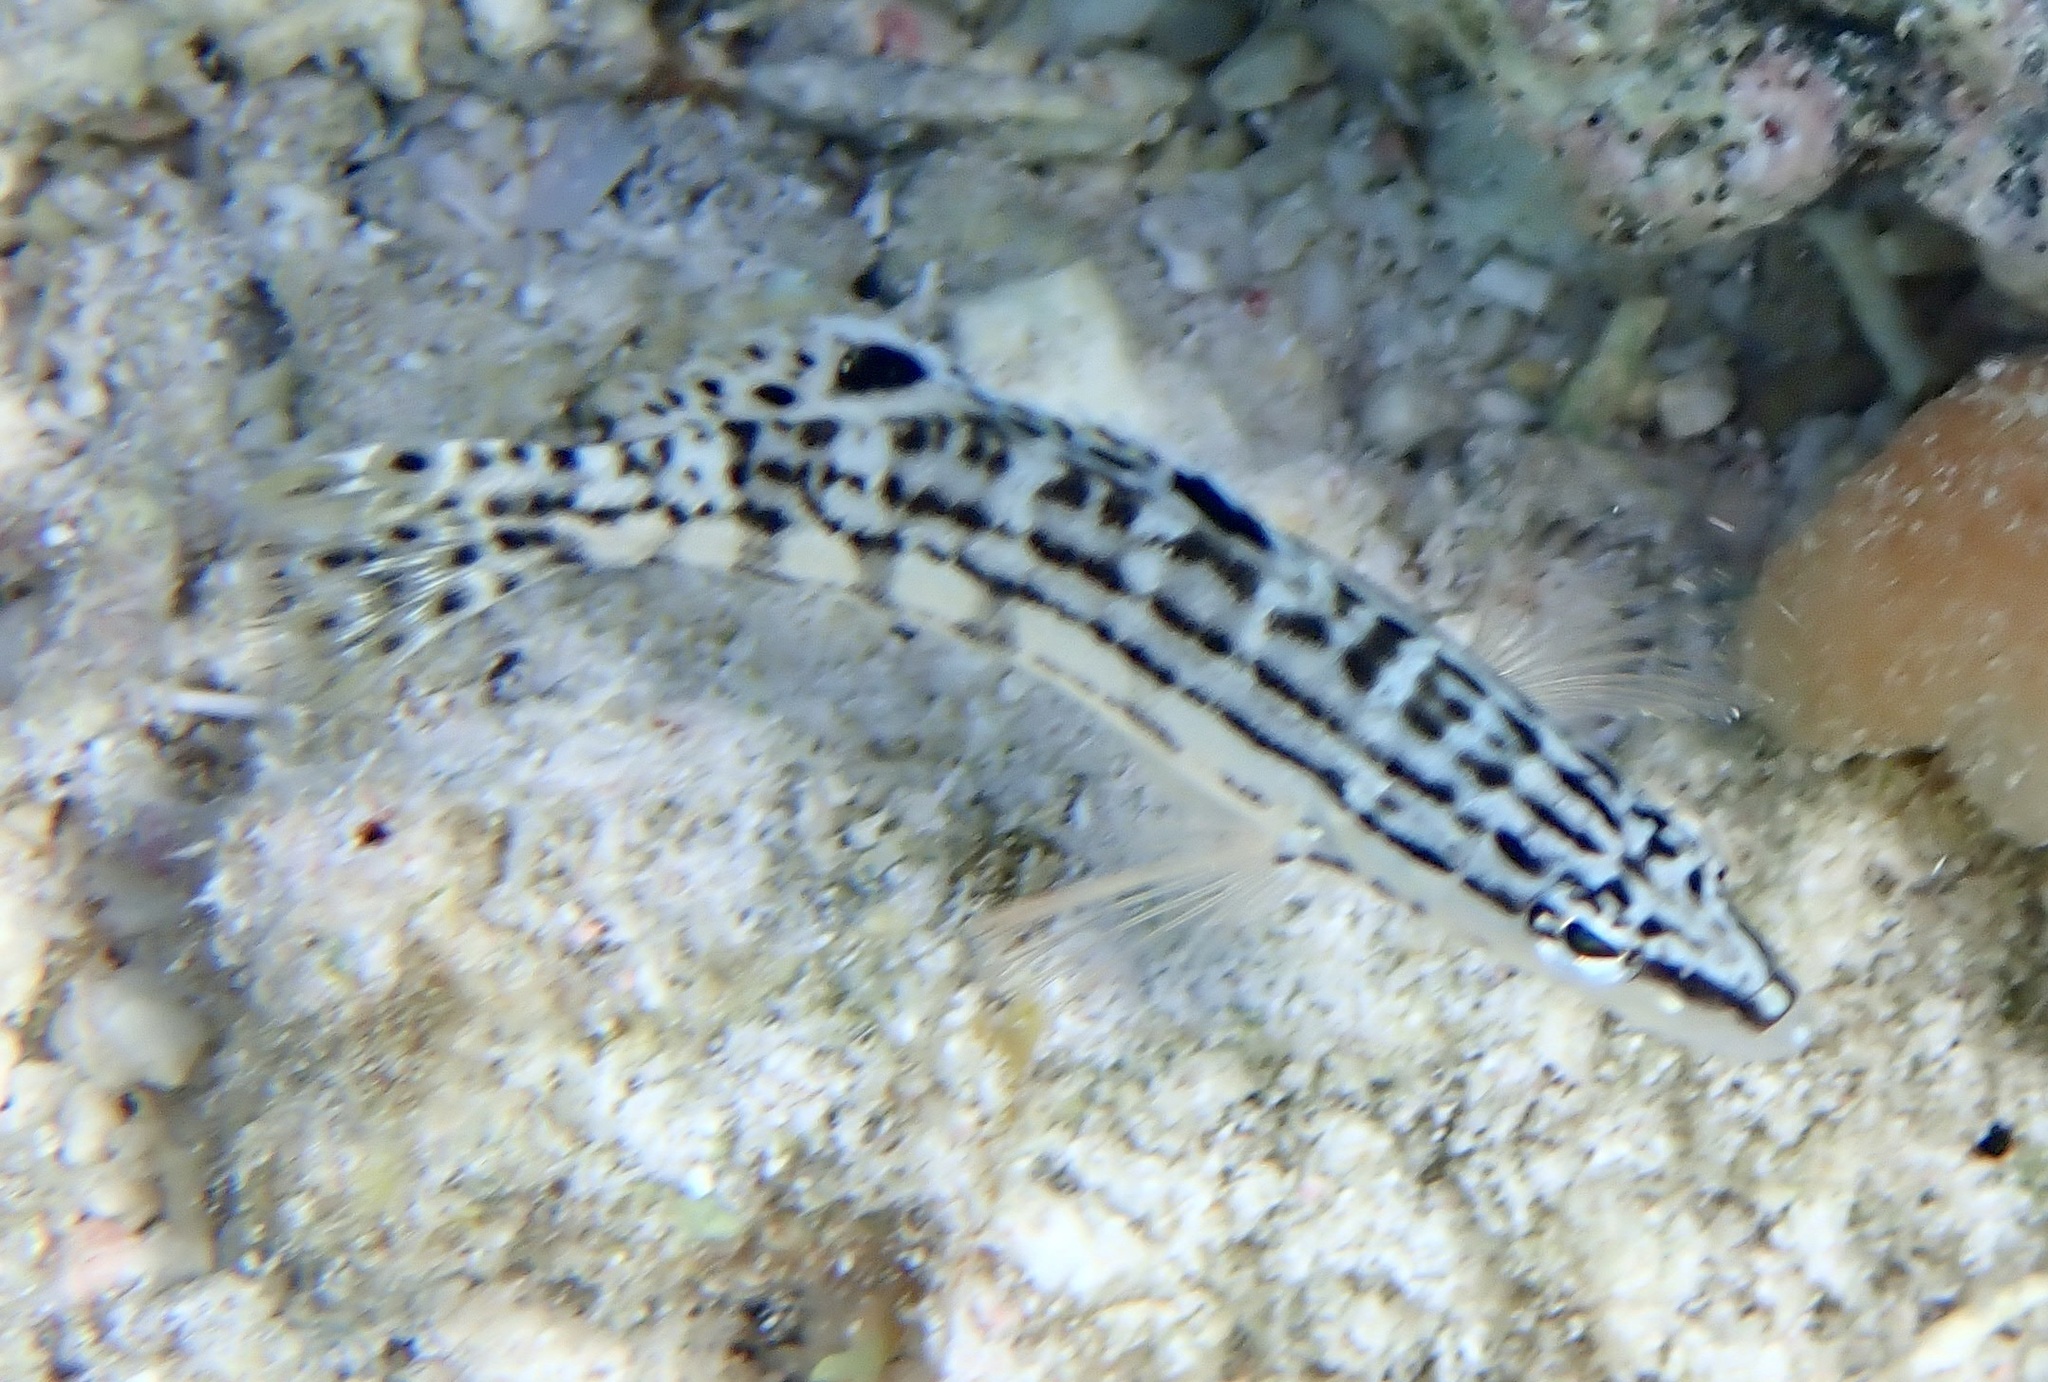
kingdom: Animalia
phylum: Chordata
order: Perciformes
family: Serranidae
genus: Serranus
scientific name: Serranus tigrinus
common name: Harlequin bass
